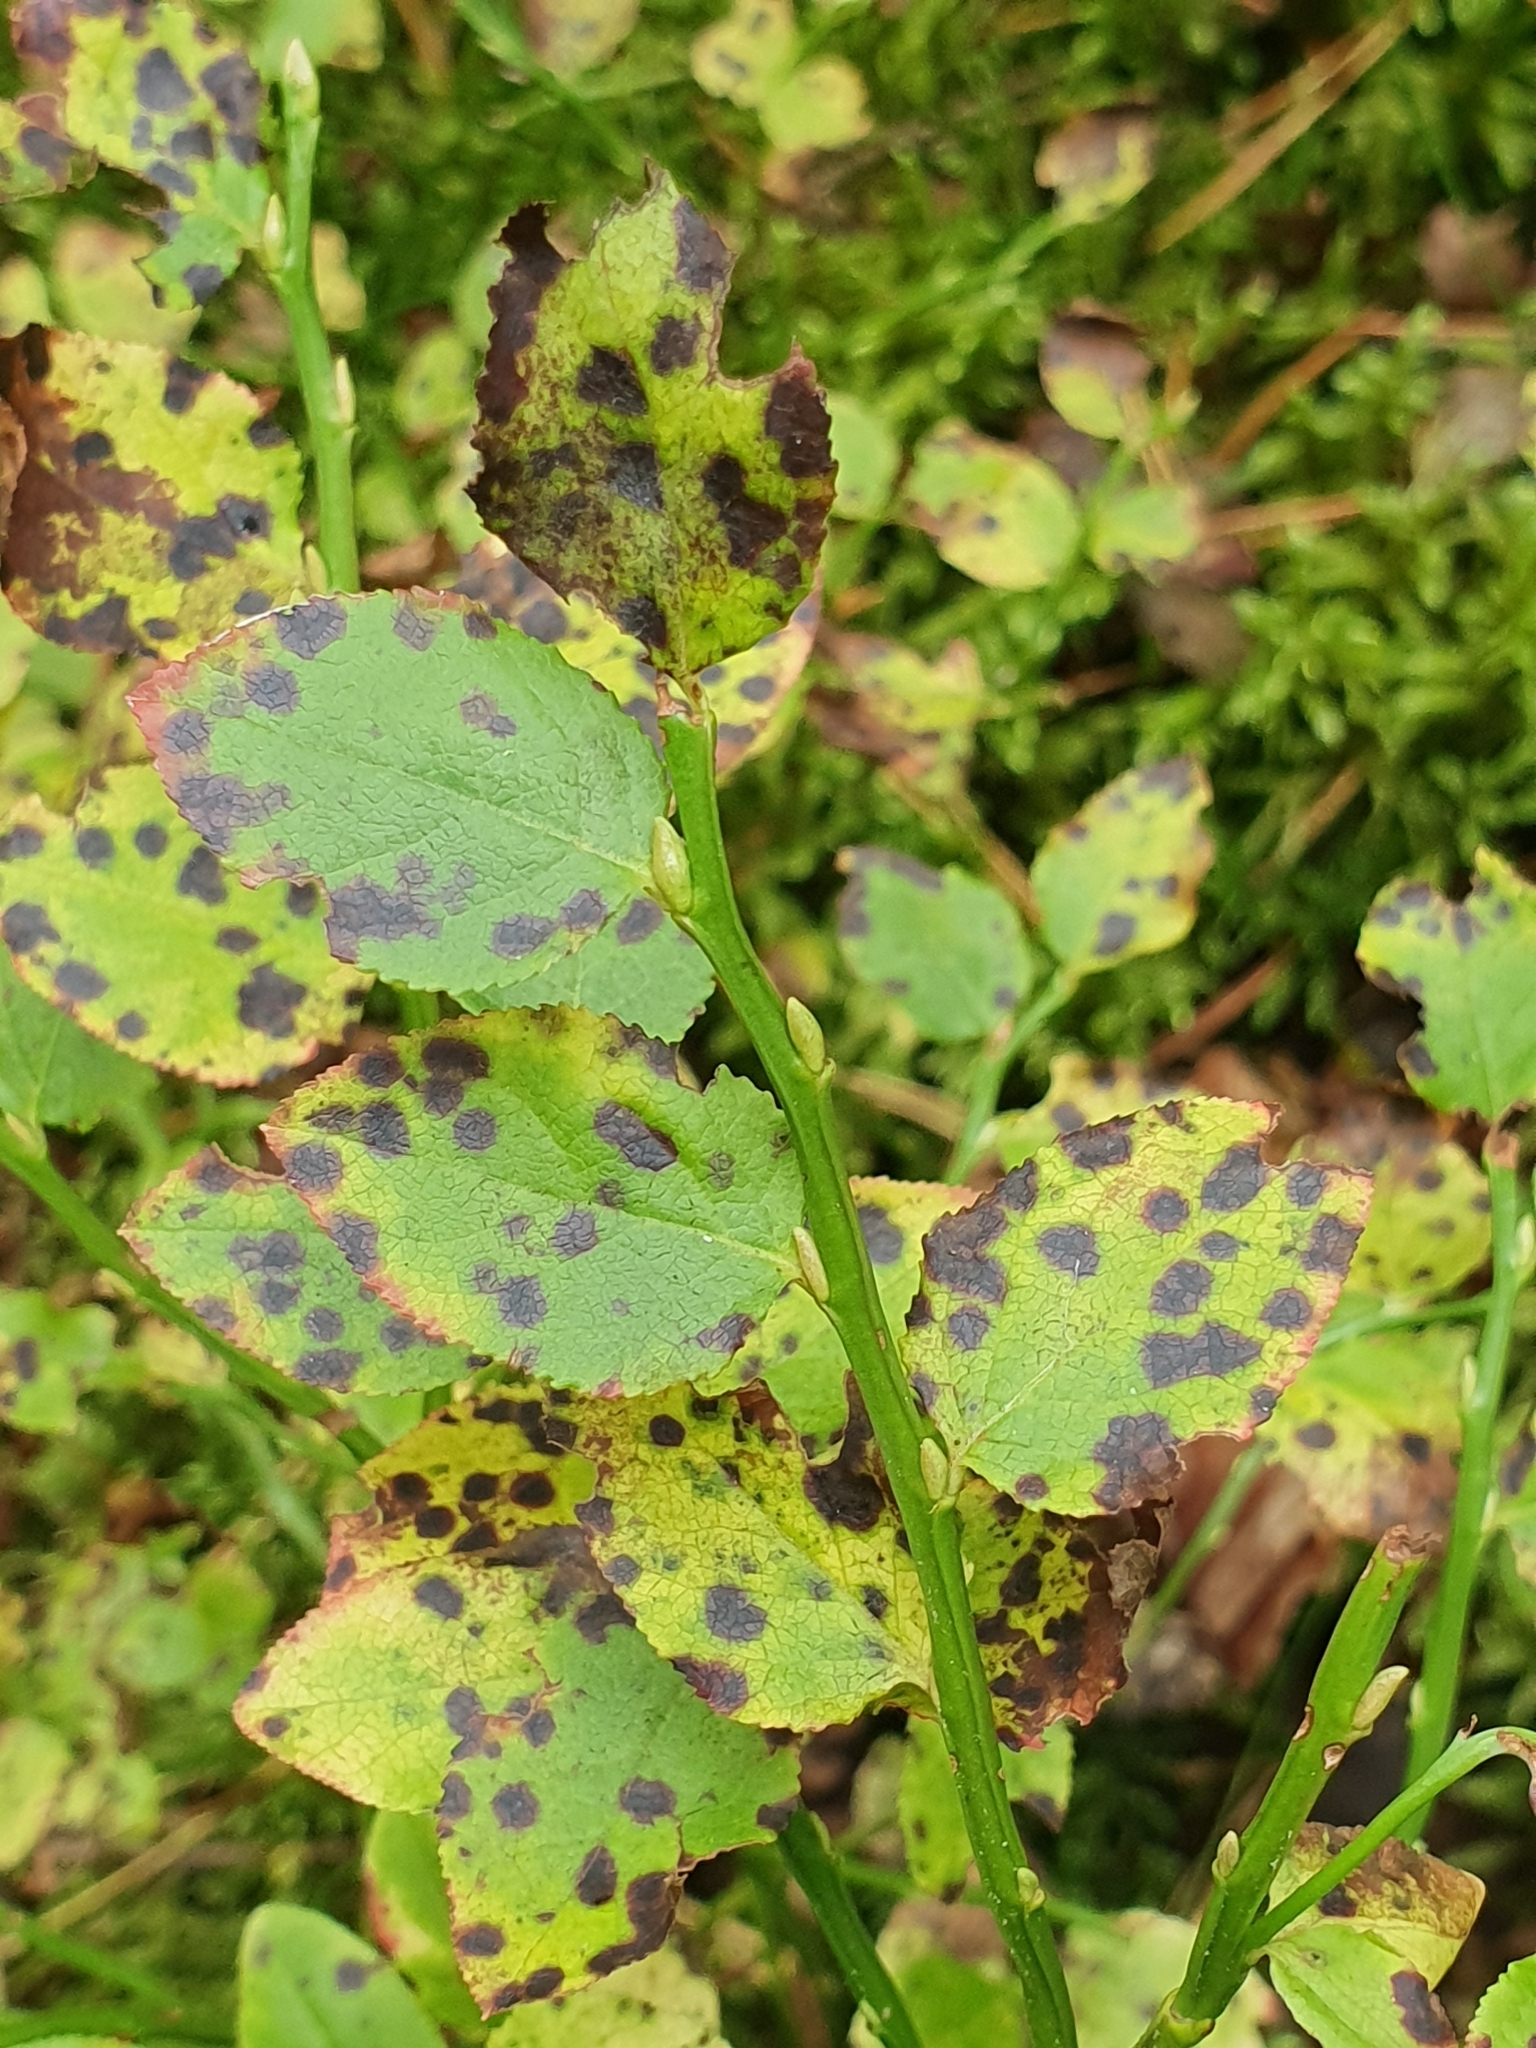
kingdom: Plantae
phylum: Tracheophyta
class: Magnoliopsida
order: Ericales
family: Ericaceae
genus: Vaccinium
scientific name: Vaccinium myrtillus
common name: Bilberry
